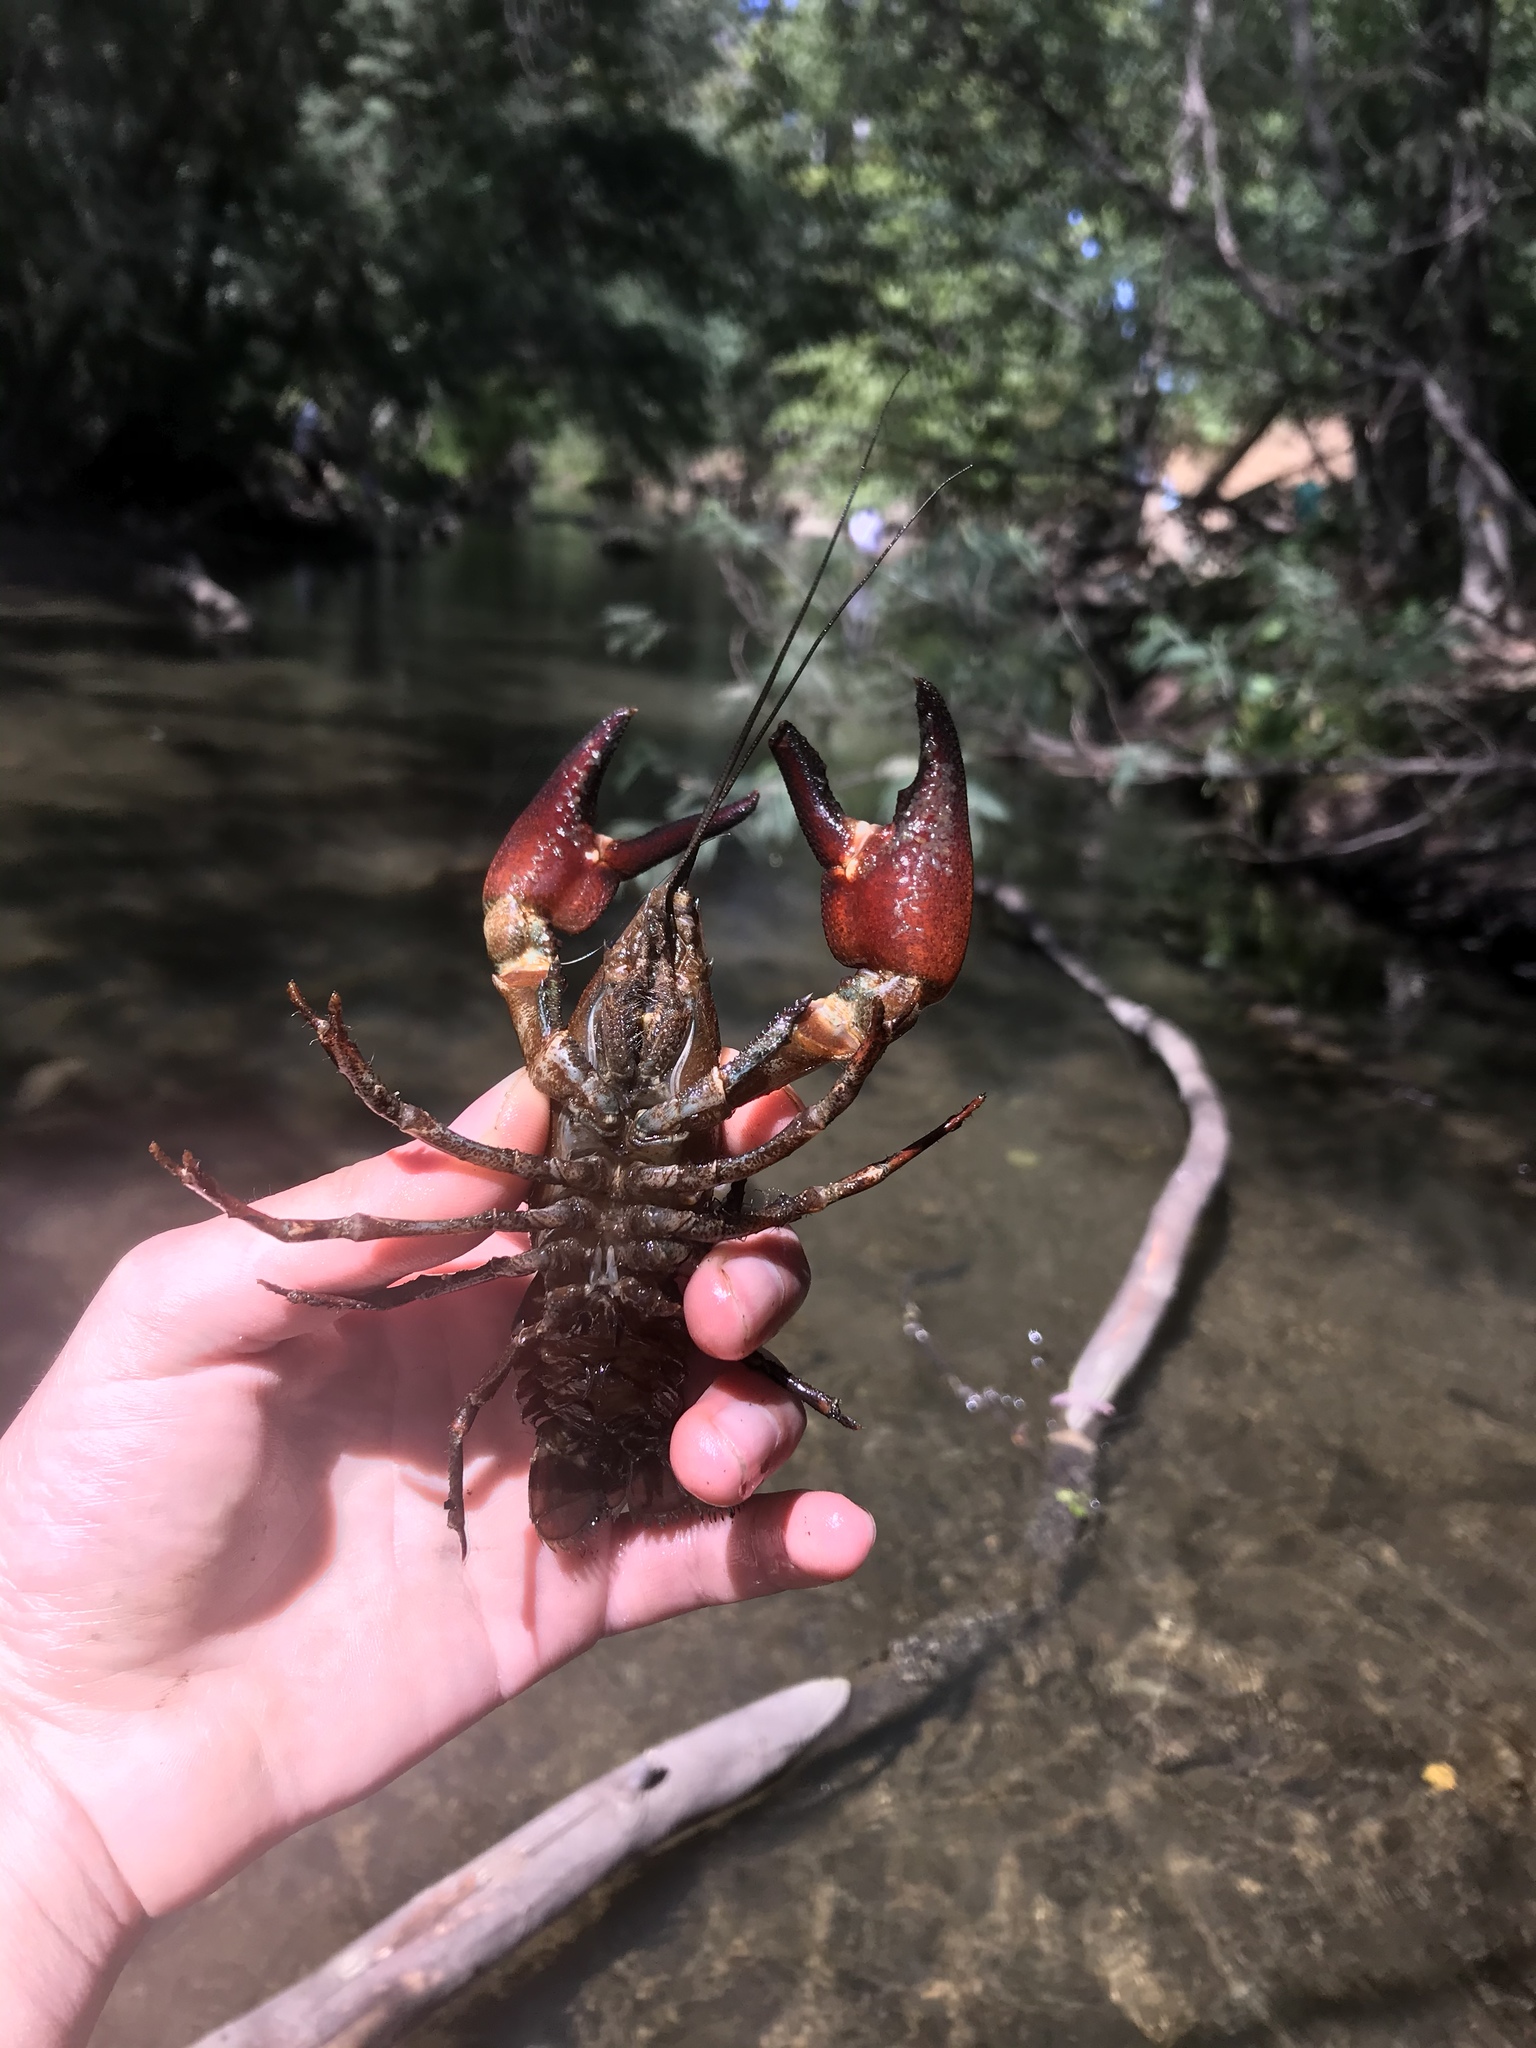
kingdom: Animalia
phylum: Arthropoda
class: Malacostraca
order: Decapoda
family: Astacidae
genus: Pacifastacus
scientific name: Pacifastacus leniusculus
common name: Signal crayfish
